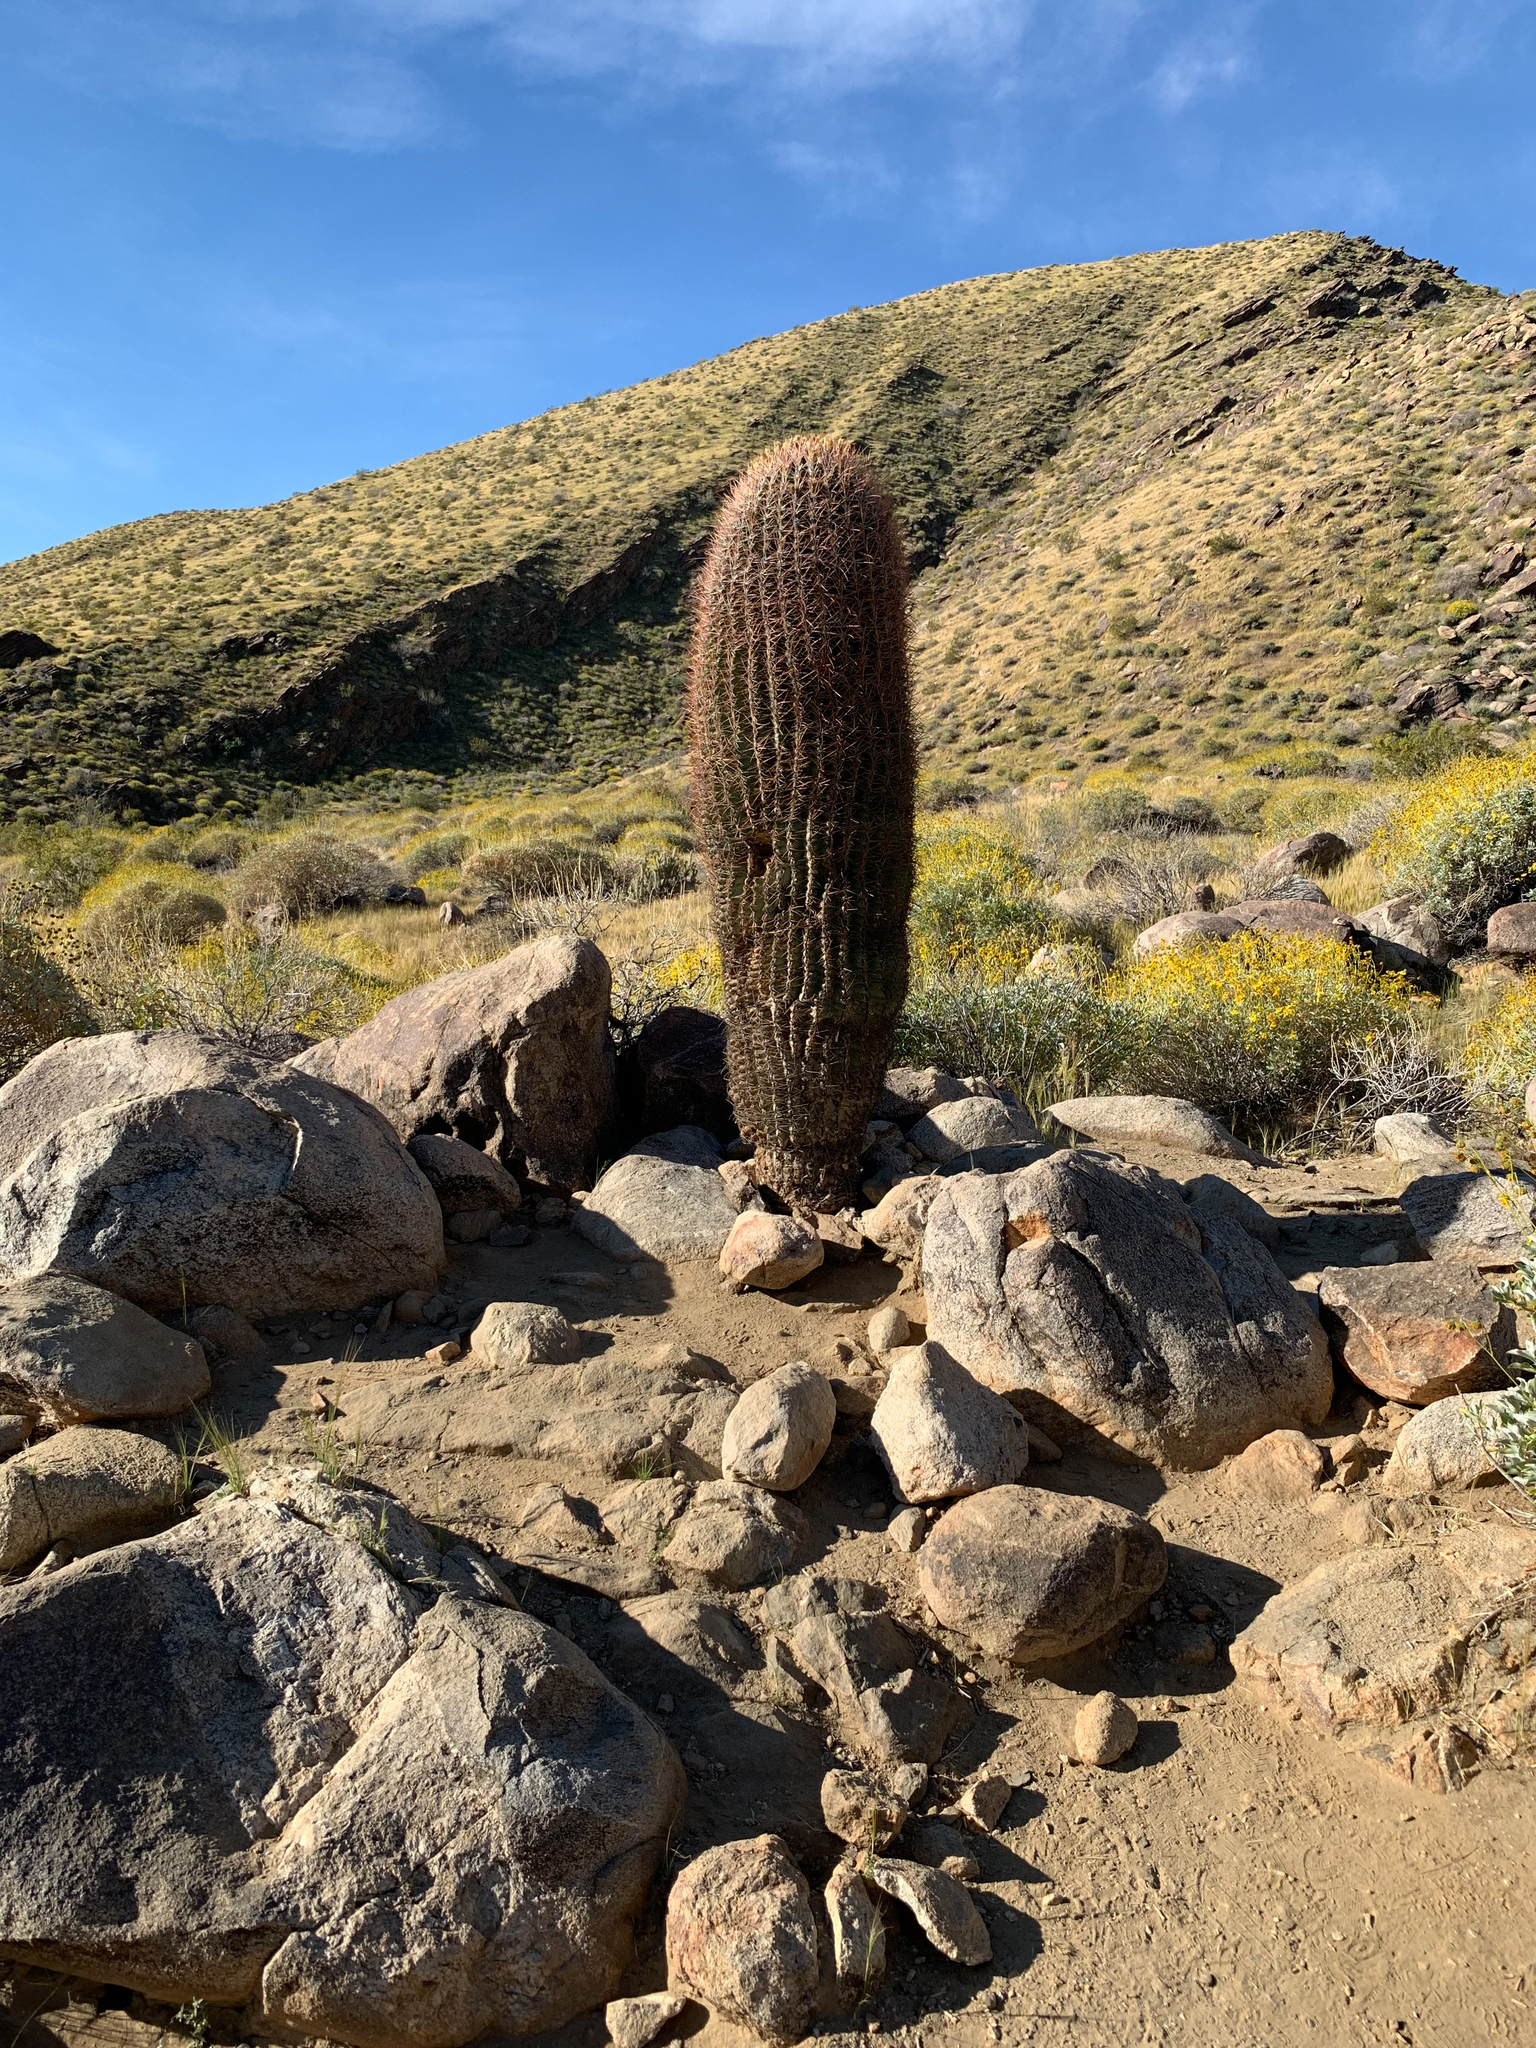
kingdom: Plantae
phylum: Tracheophyta
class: Magnoliopsida
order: Caryophyllales
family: Cactaceae
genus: Ferocactus
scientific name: Ferocactus cylindraceus
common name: California barrel cactus
